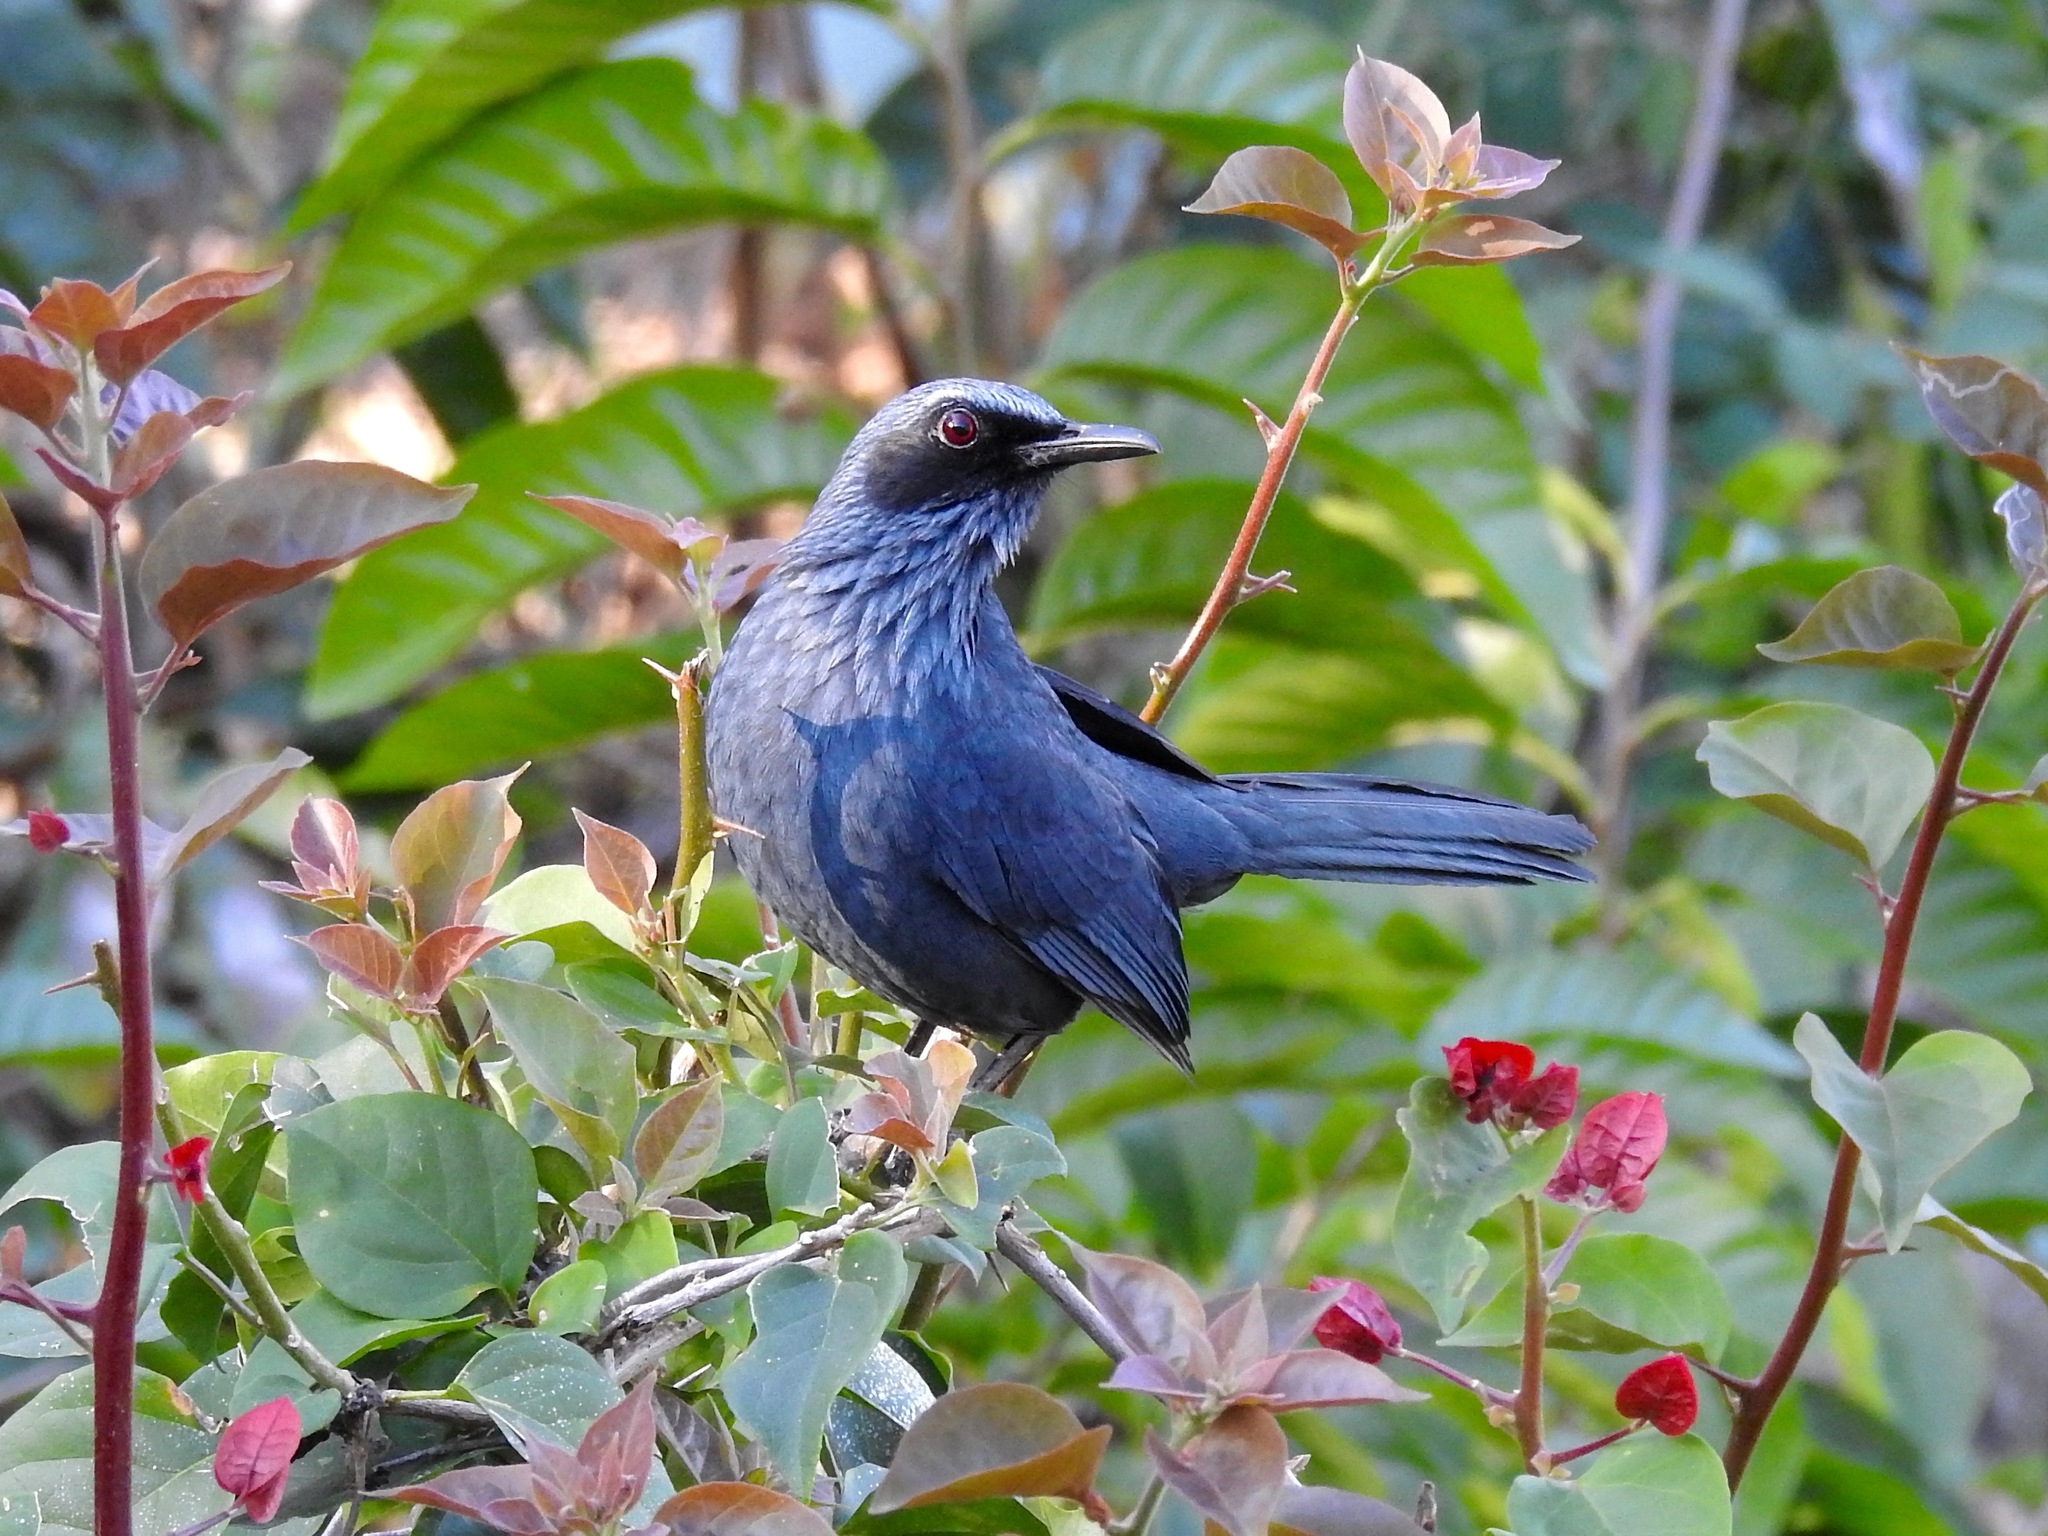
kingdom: Animalia
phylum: Chordata
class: Aves
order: Passeriformes
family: Mimidae
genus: Melanotis
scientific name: Melanotis caerulescens
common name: Blue mockingbird
